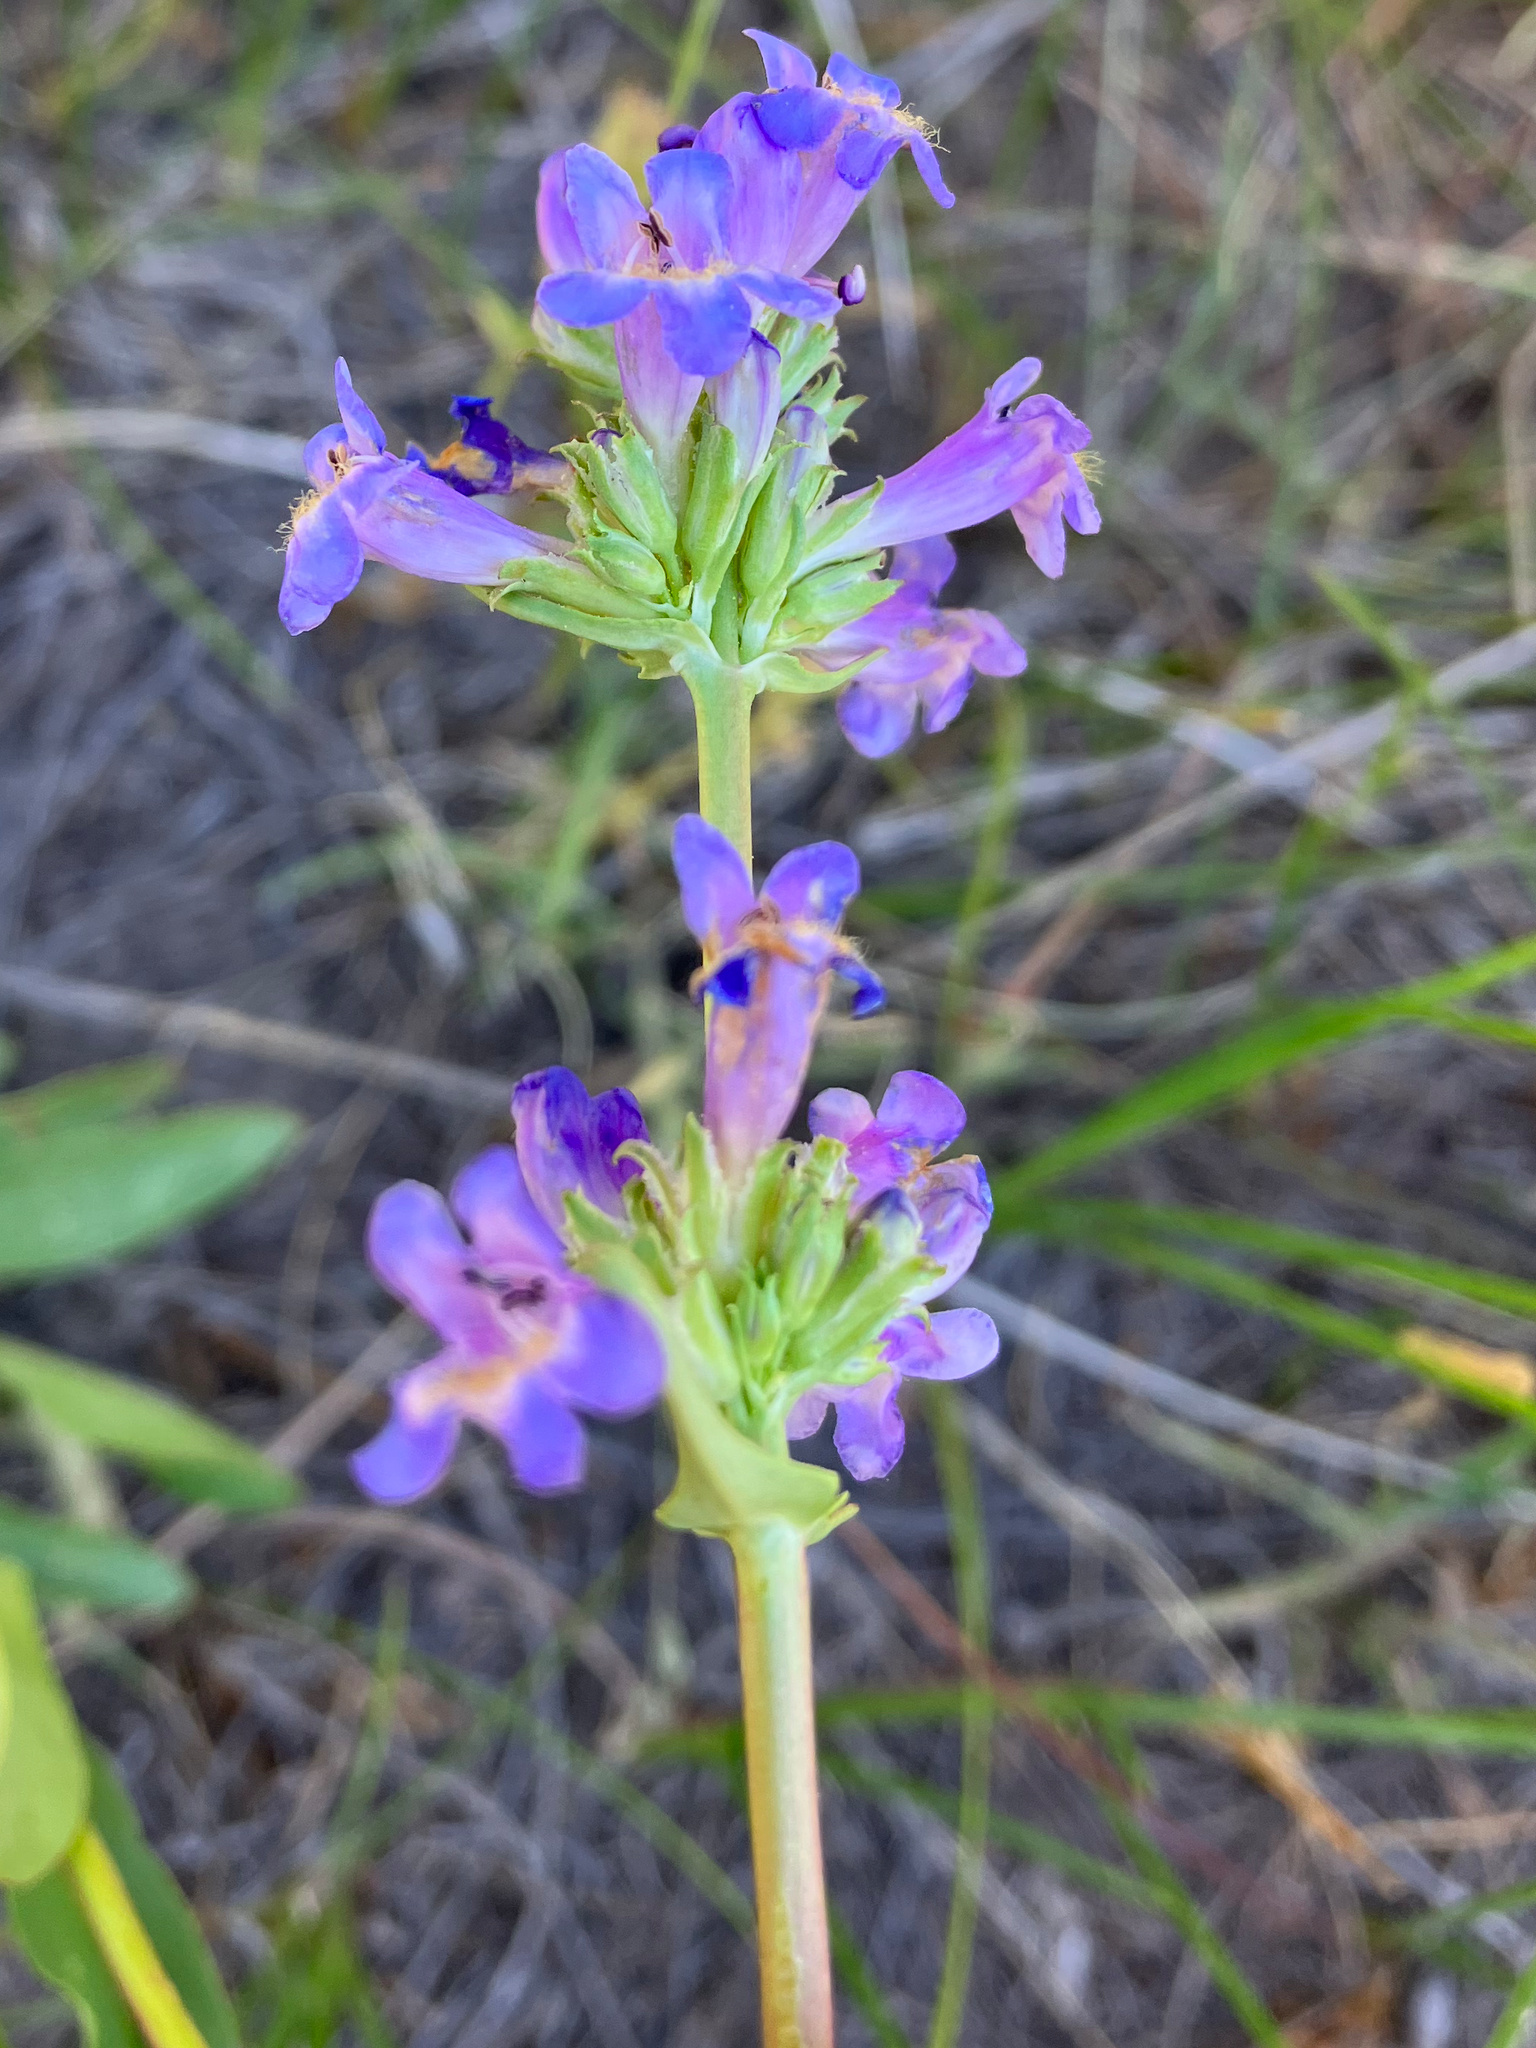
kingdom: Plantae
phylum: Tracheophyta
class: Magnoliopsida
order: Lamiales
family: Plantaginaceae
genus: Penstemon
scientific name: Penstemon procerus
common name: Small-flower penstemon
